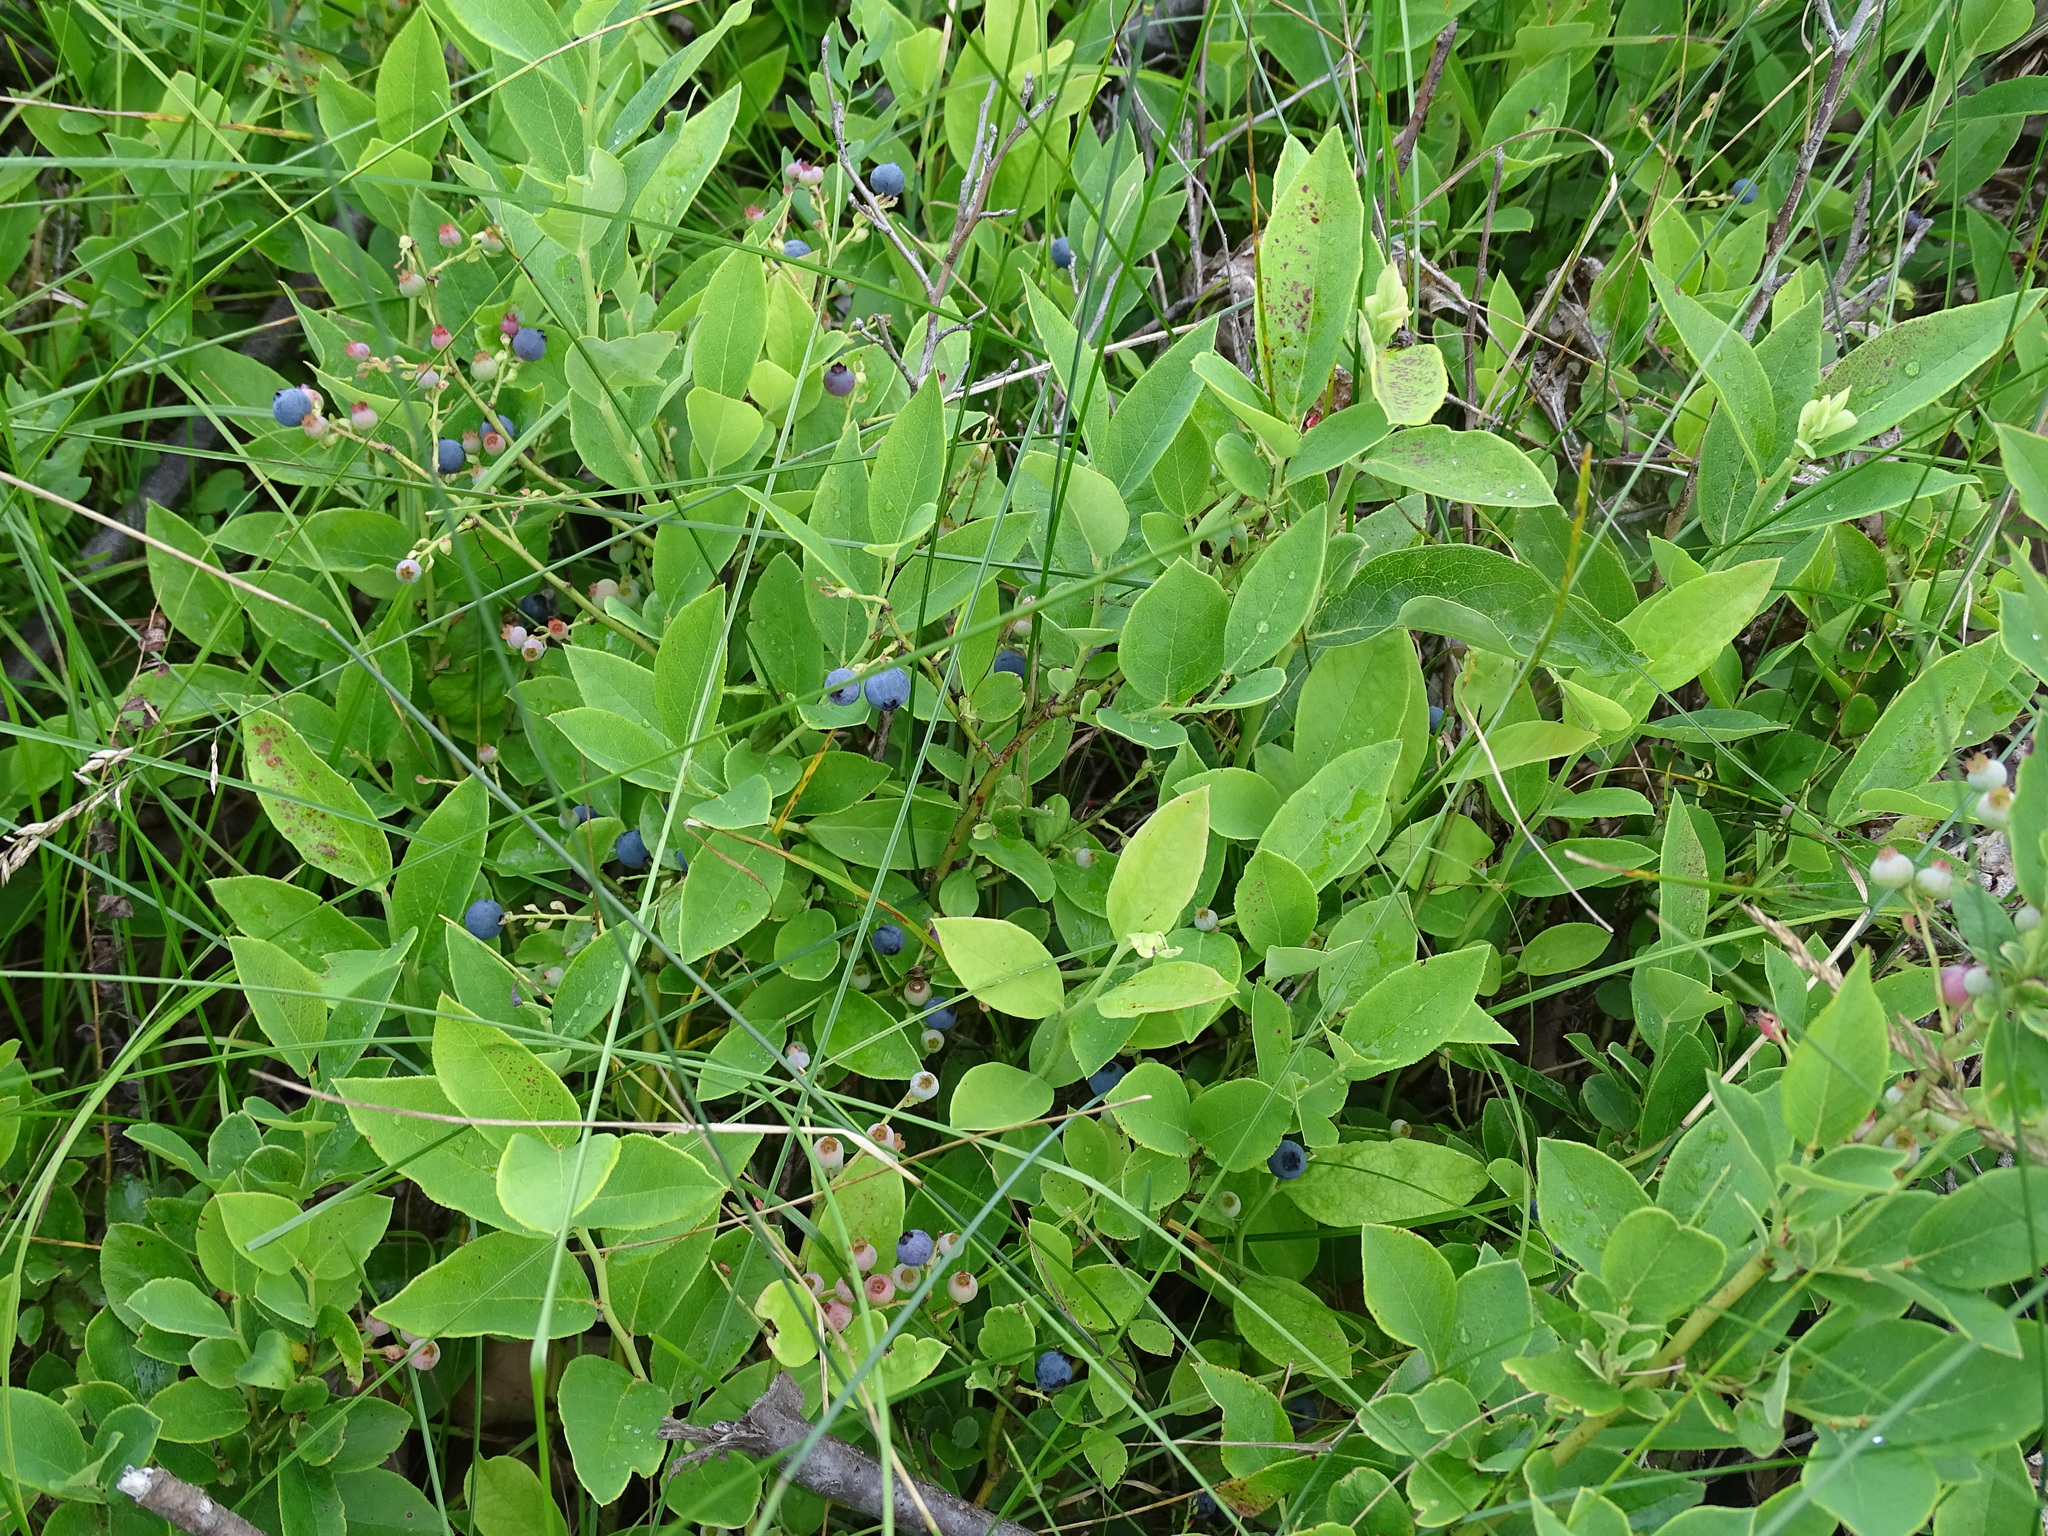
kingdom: Plantae
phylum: Tracheophyta
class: Magnoliopsida
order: Ericales
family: Ericaceae
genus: Vaccinium
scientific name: Vaccinium pallidum
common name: Blue ridge blueberry
